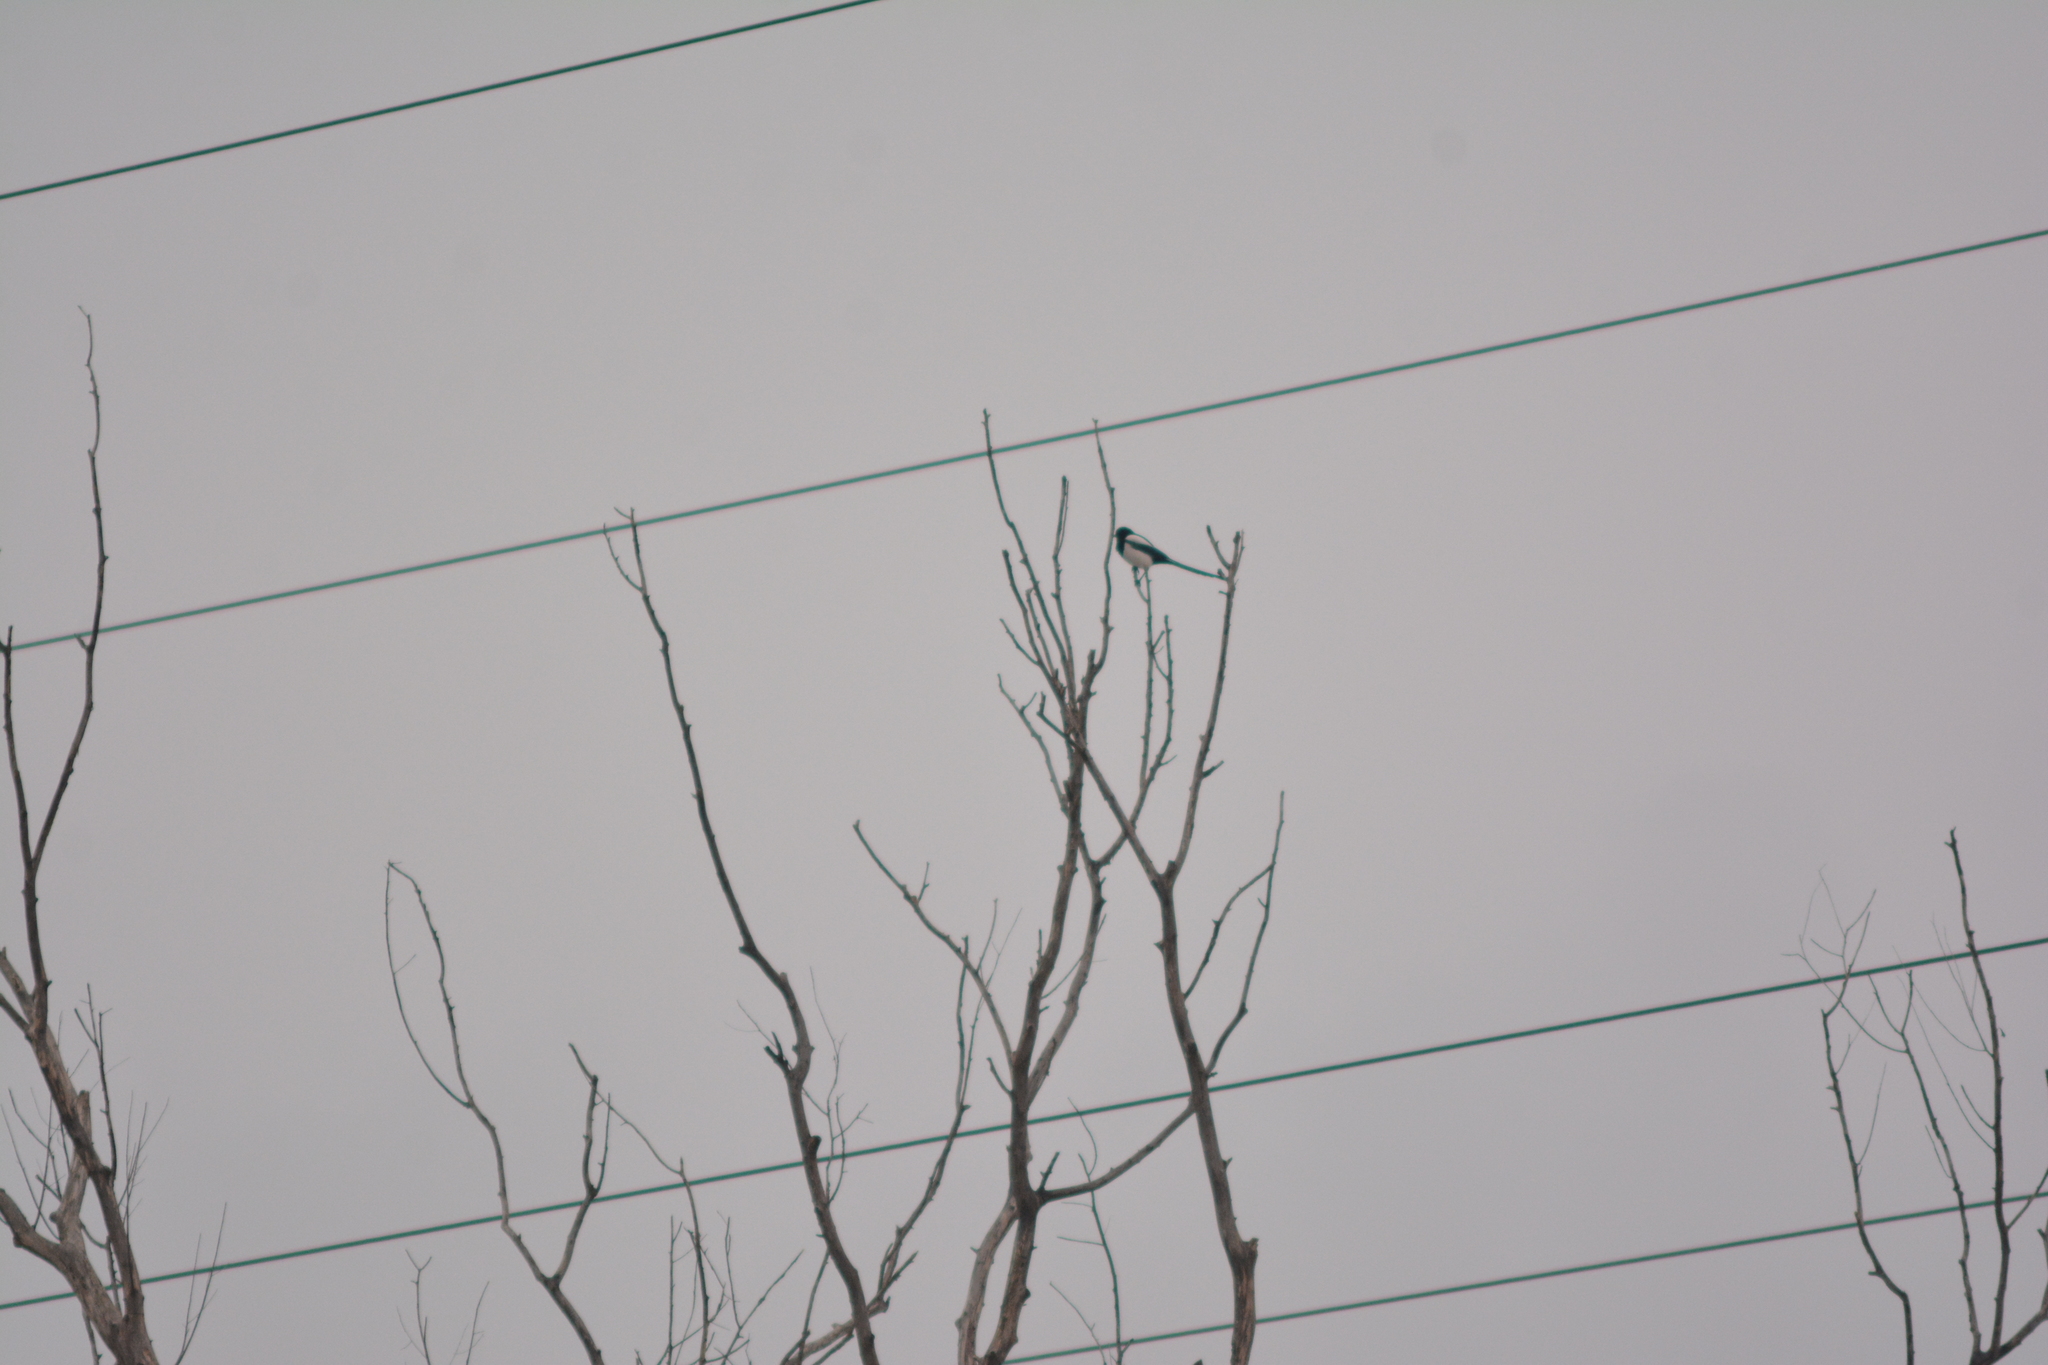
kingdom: Animalia
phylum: Chordata
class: Aves
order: Passeriformes
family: Corvidae
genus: Pica
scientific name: Pica pica
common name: Eurasian magpie
